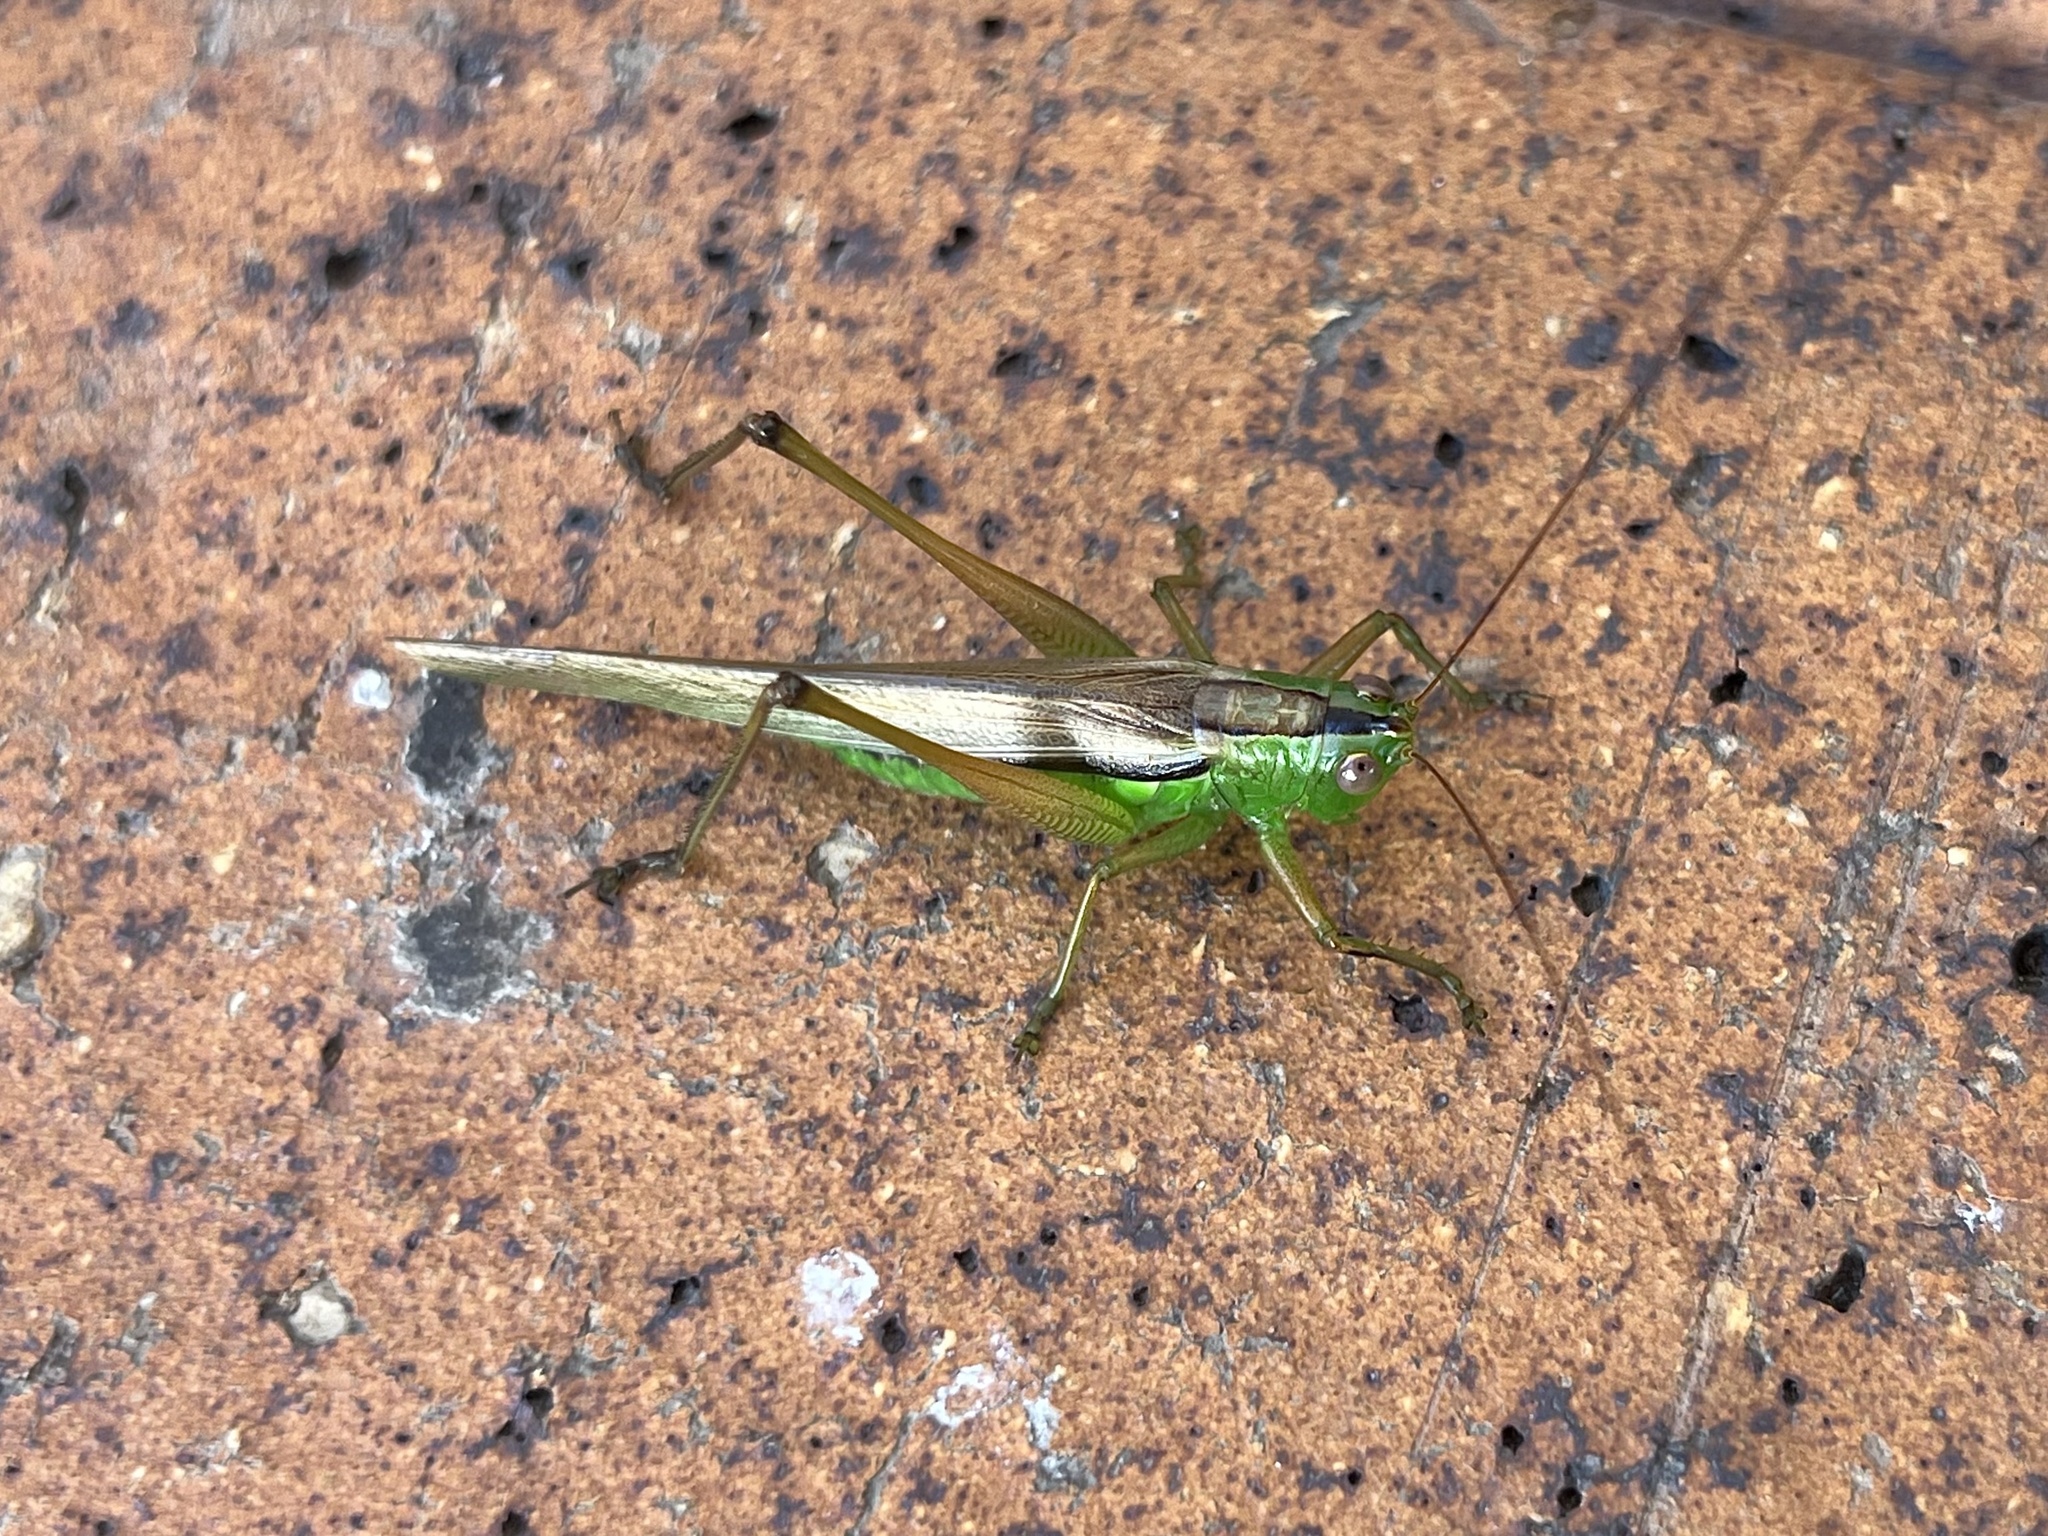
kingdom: Animalia
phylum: Arthropoda
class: Insecta
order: Orthoptera
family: Tettigoniidae
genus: Conocephalus
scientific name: Conocephalus semivittatus
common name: Blackish meadow katydid
